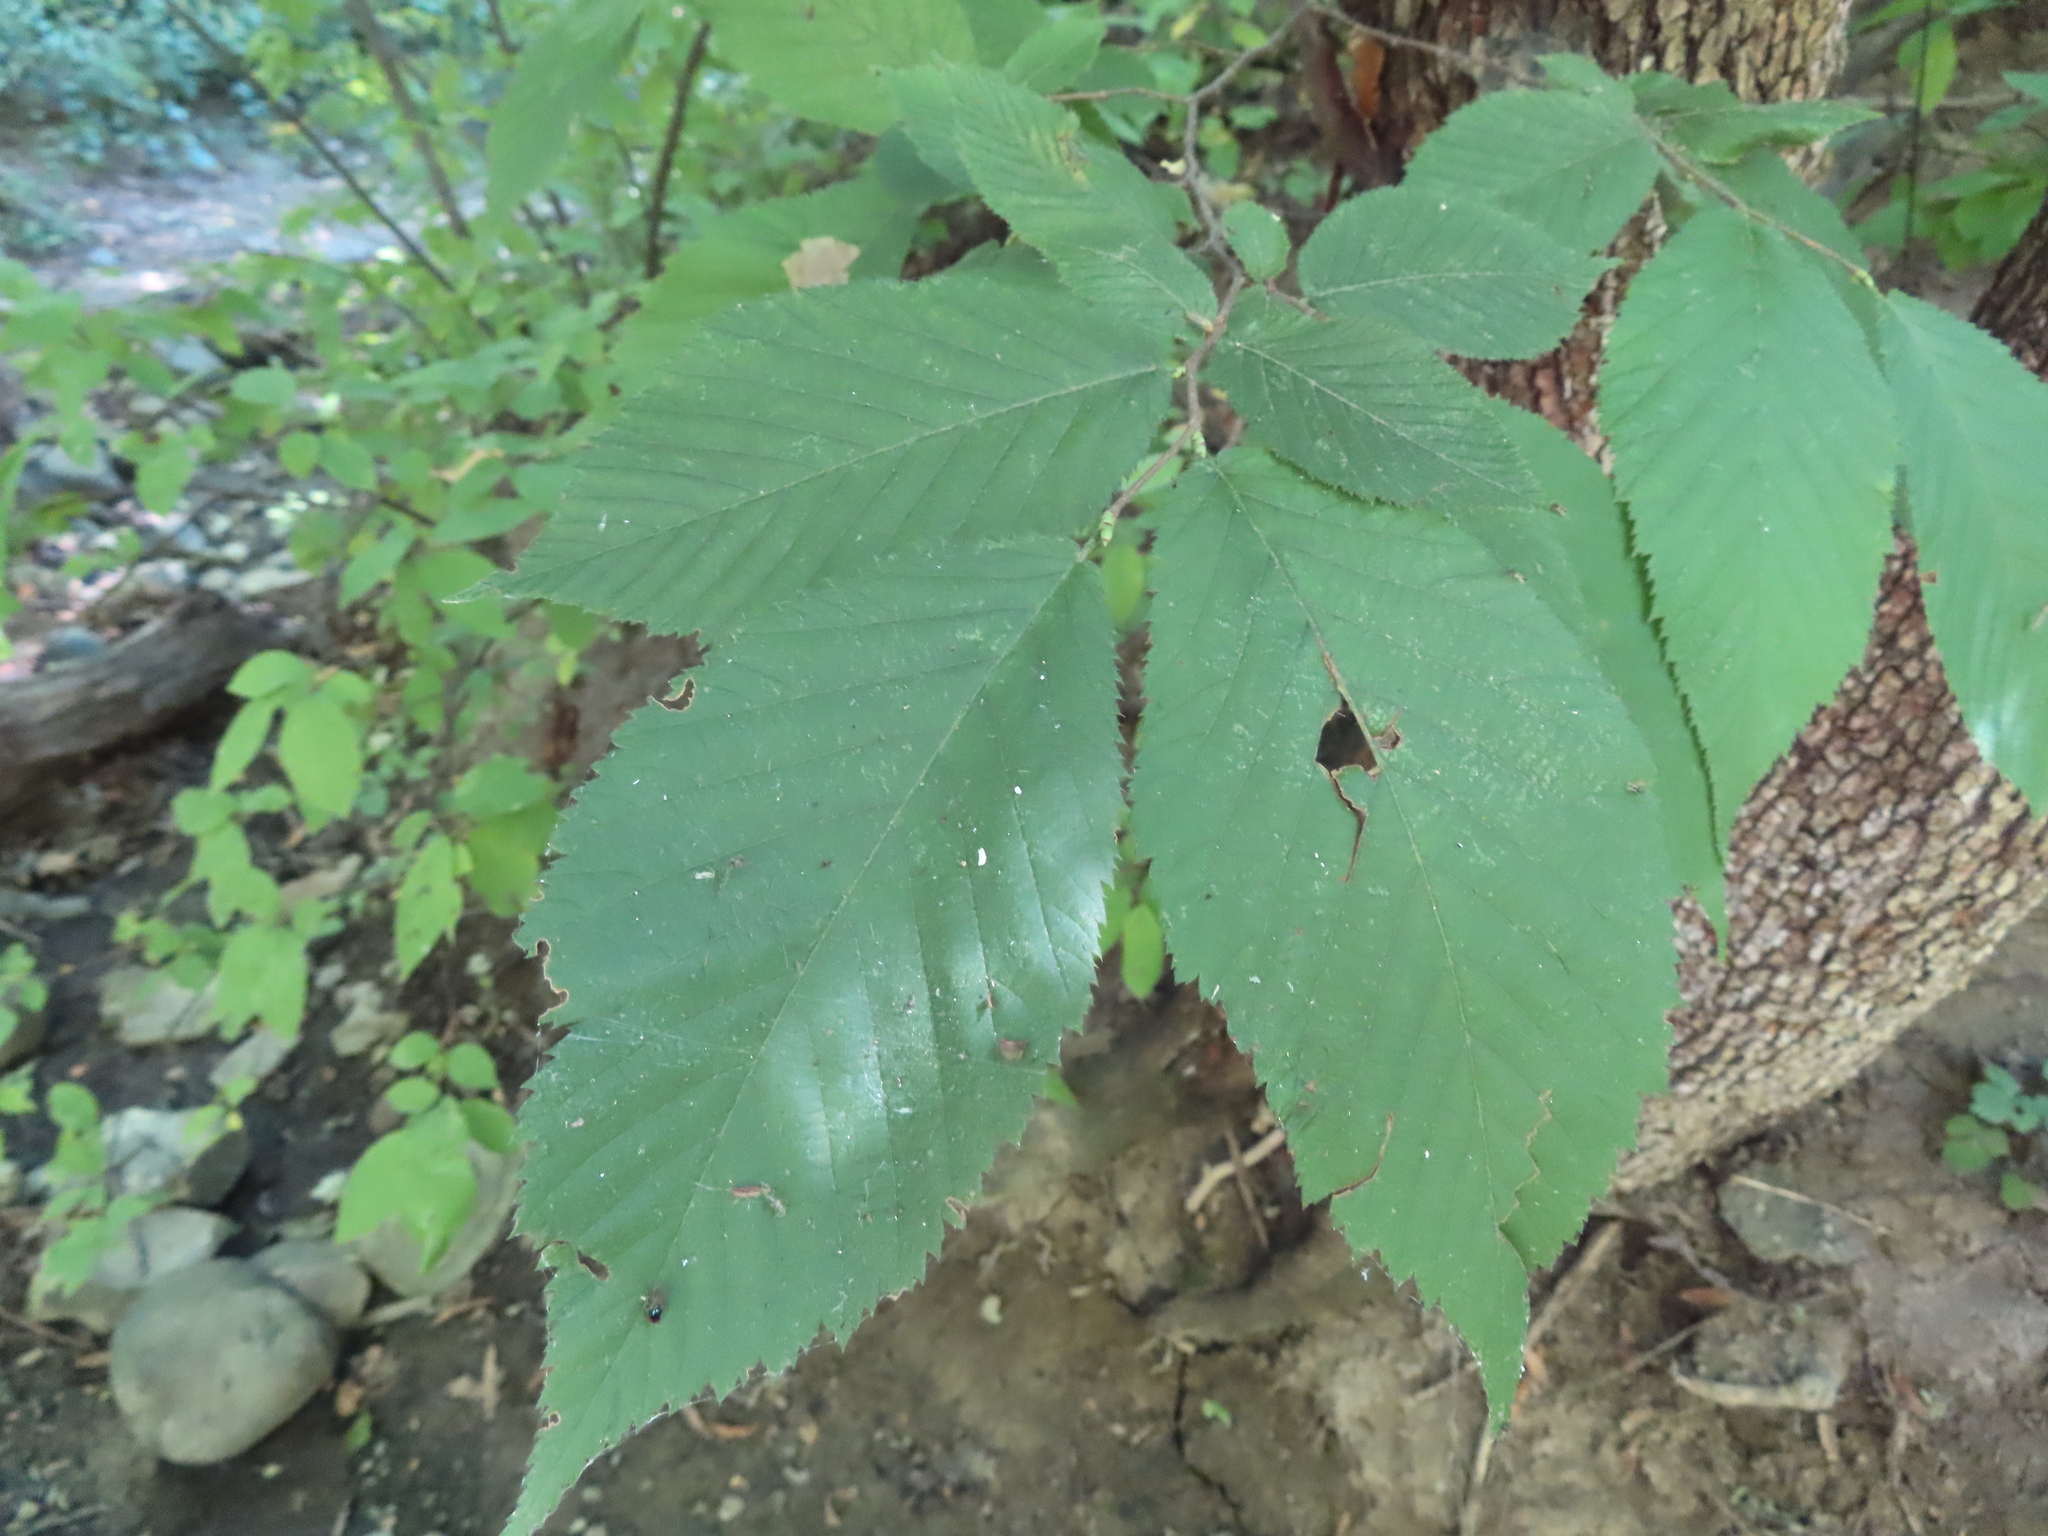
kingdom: Plantae
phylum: Tracheophyta
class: Magnoliopsida
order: Fagales
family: Betulaceae
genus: Ostrya
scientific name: Ostrya virginiana
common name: Ironwood
